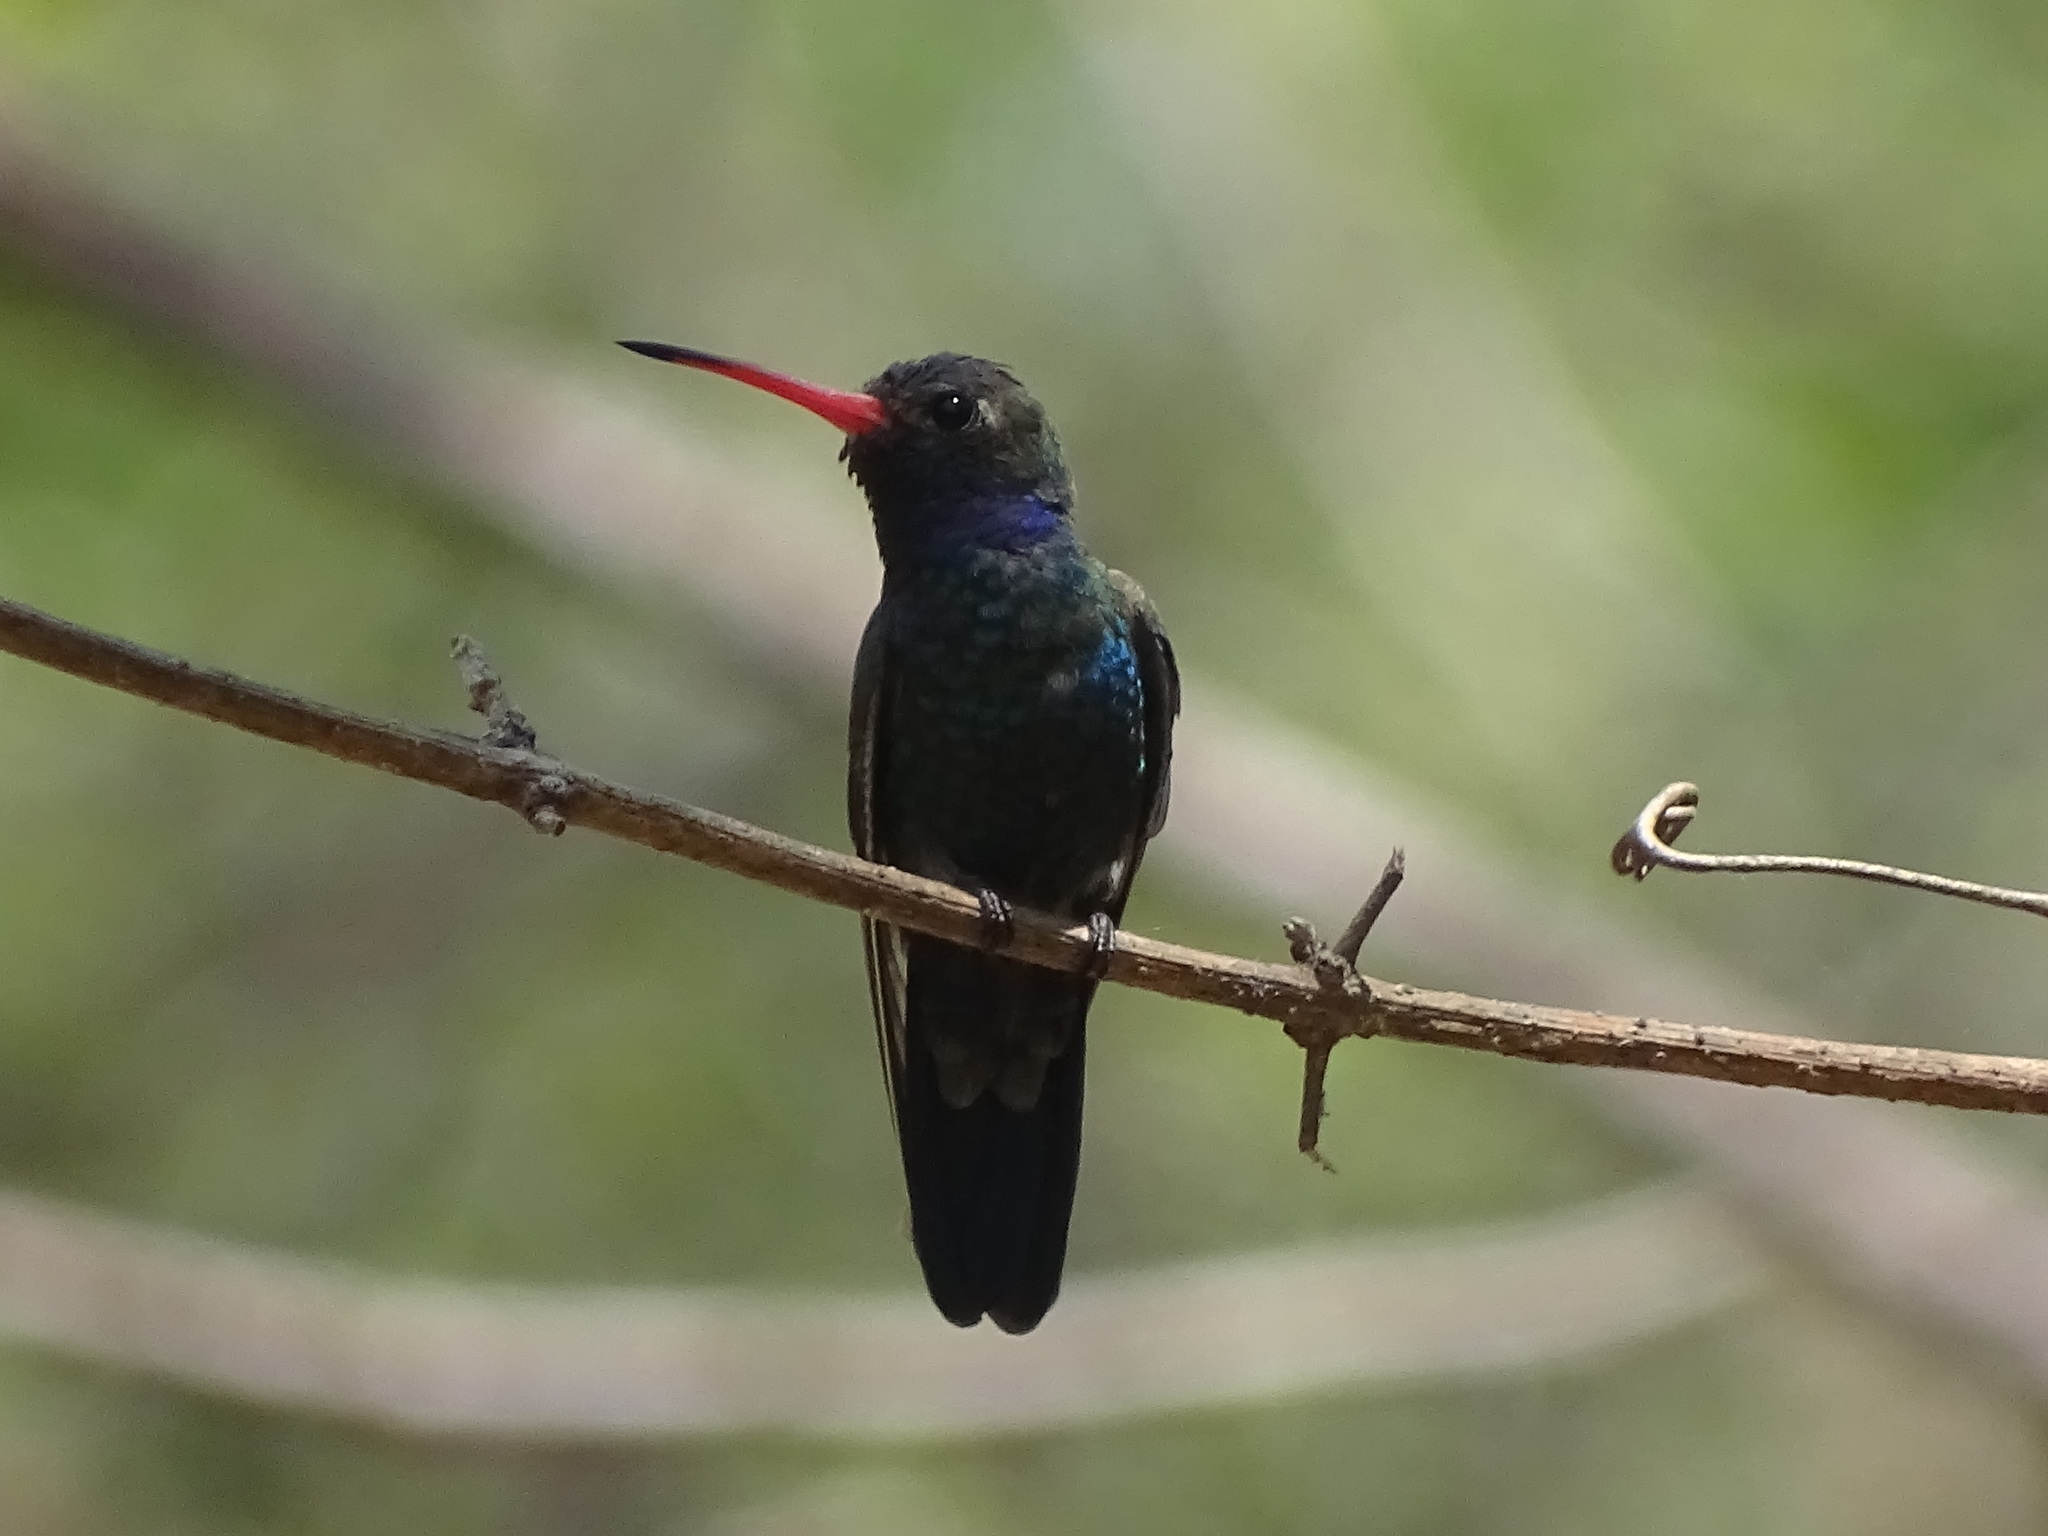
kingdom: Animalia
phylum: Chordata
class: Aves
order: Apodiformes
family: Trochilidae
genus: Cynanthus
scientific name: Cynanthus doubledayi
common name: Doubleday's hummingbird
